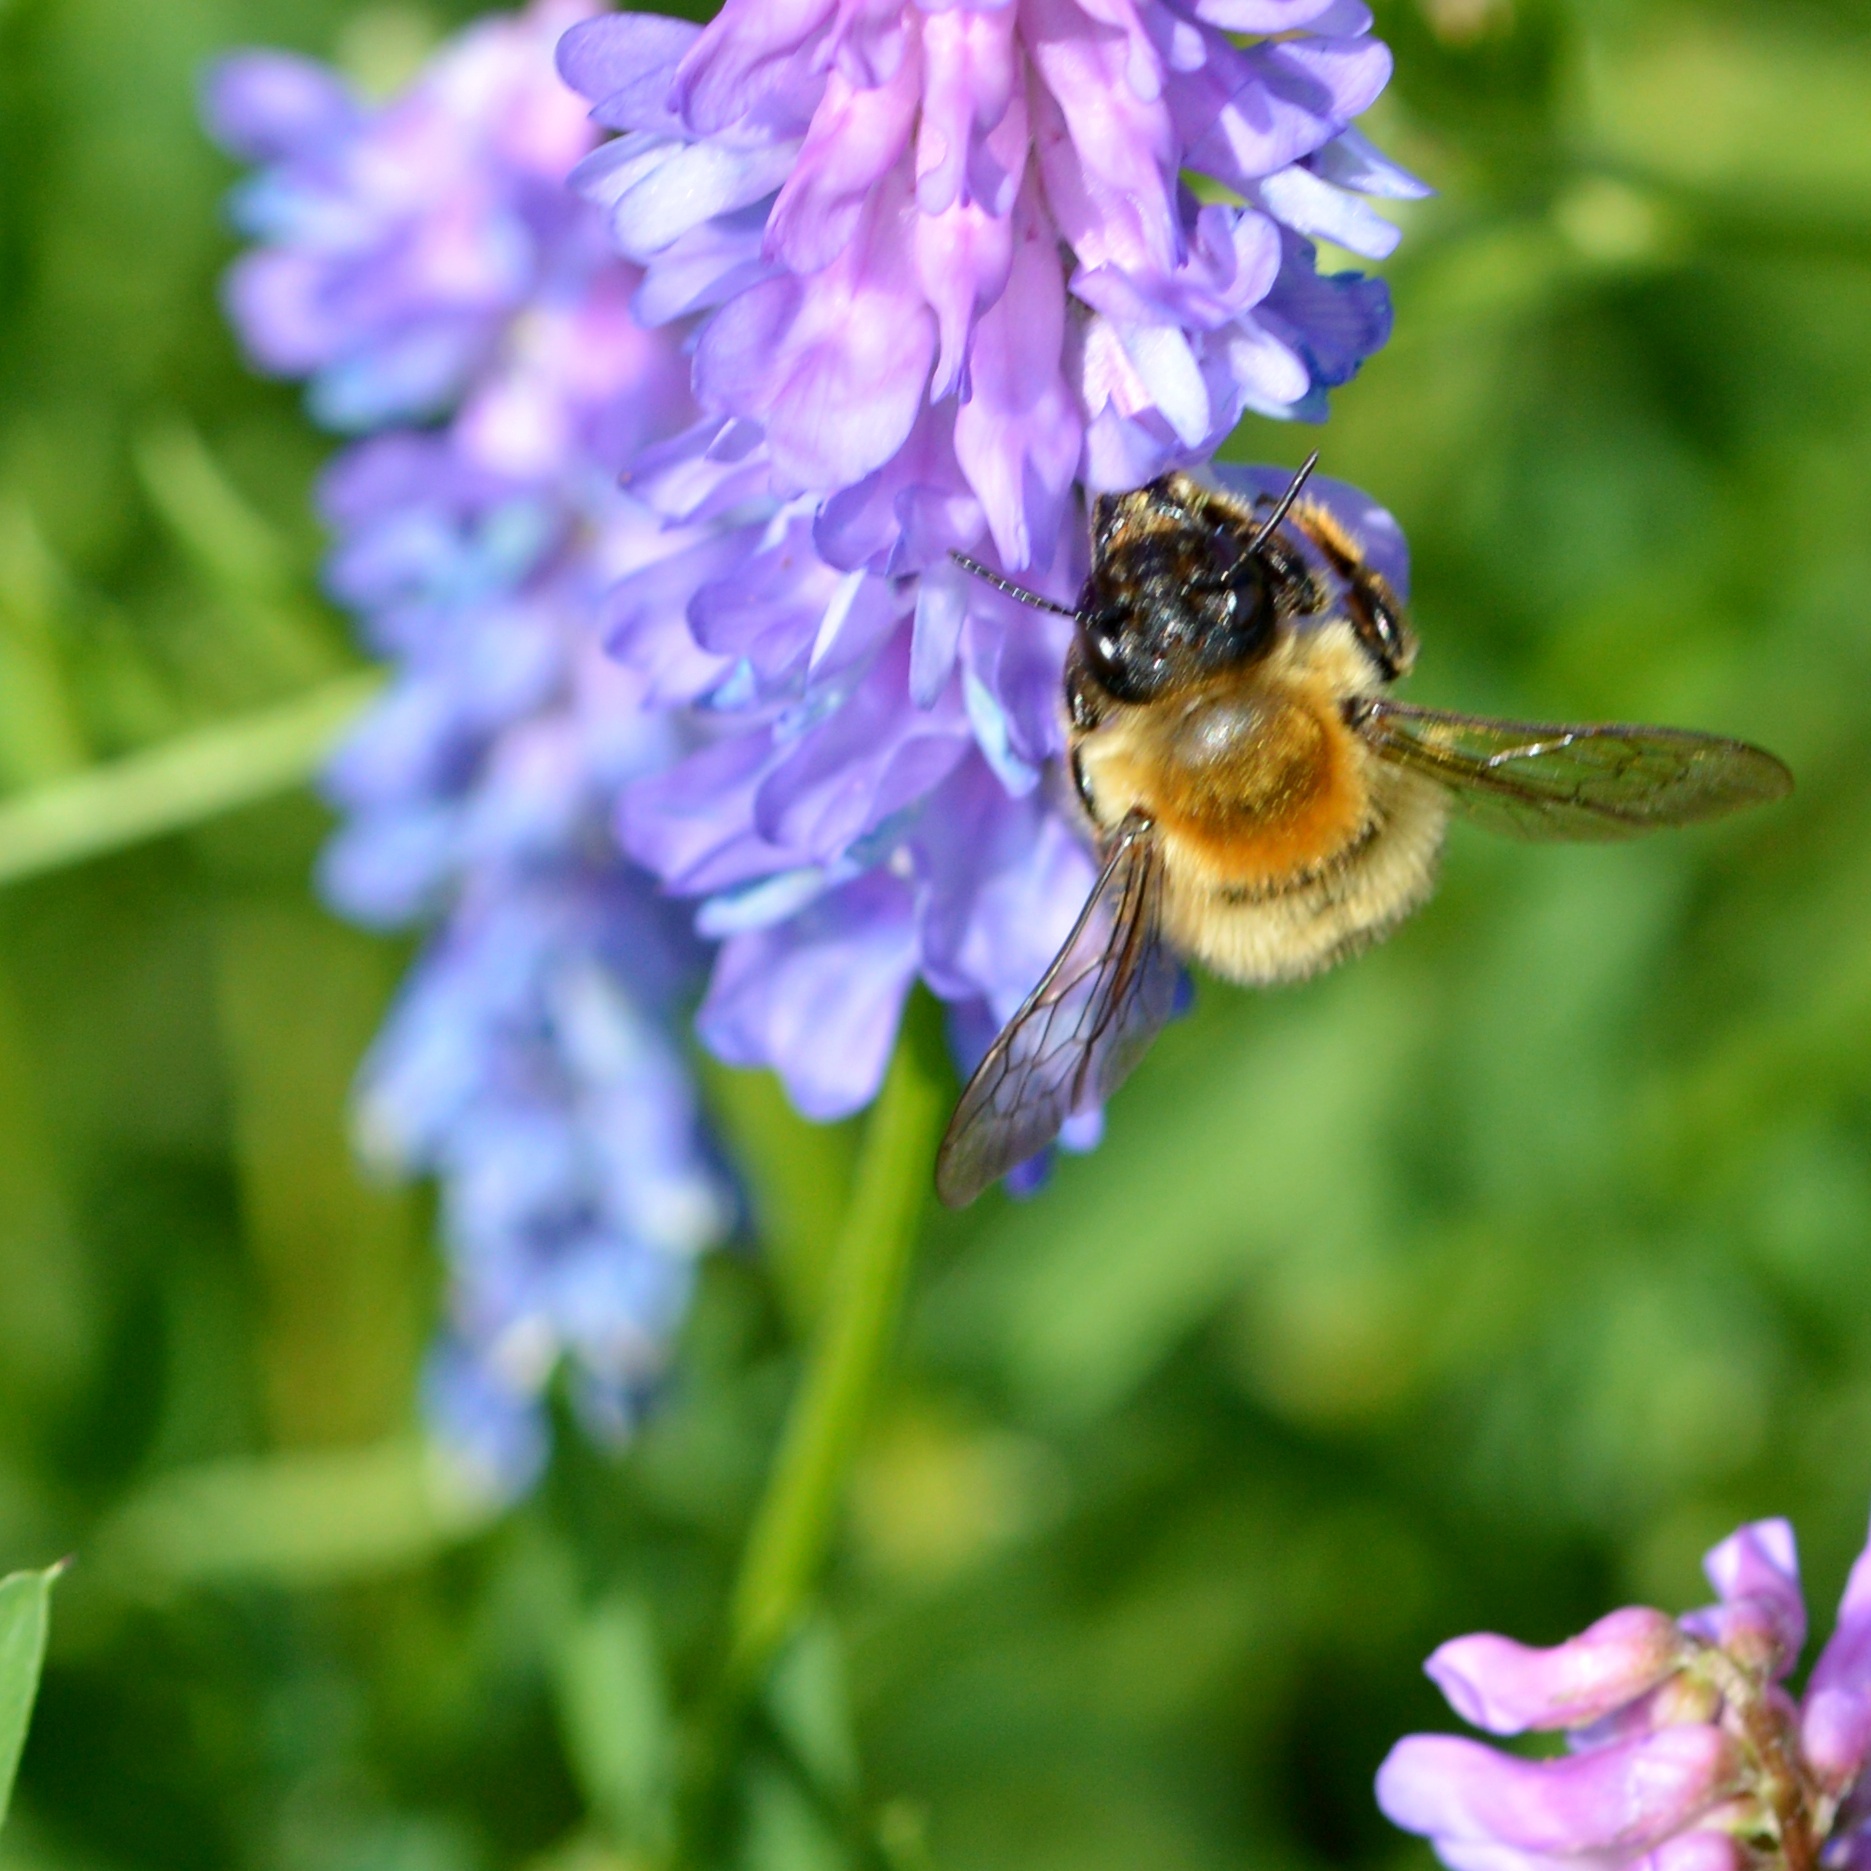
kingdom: Animalia
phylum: Arthropoda
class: Insecta
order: Hymenoptera
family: Megachilidae
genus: Megachile
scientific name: Megachile nigriventris
